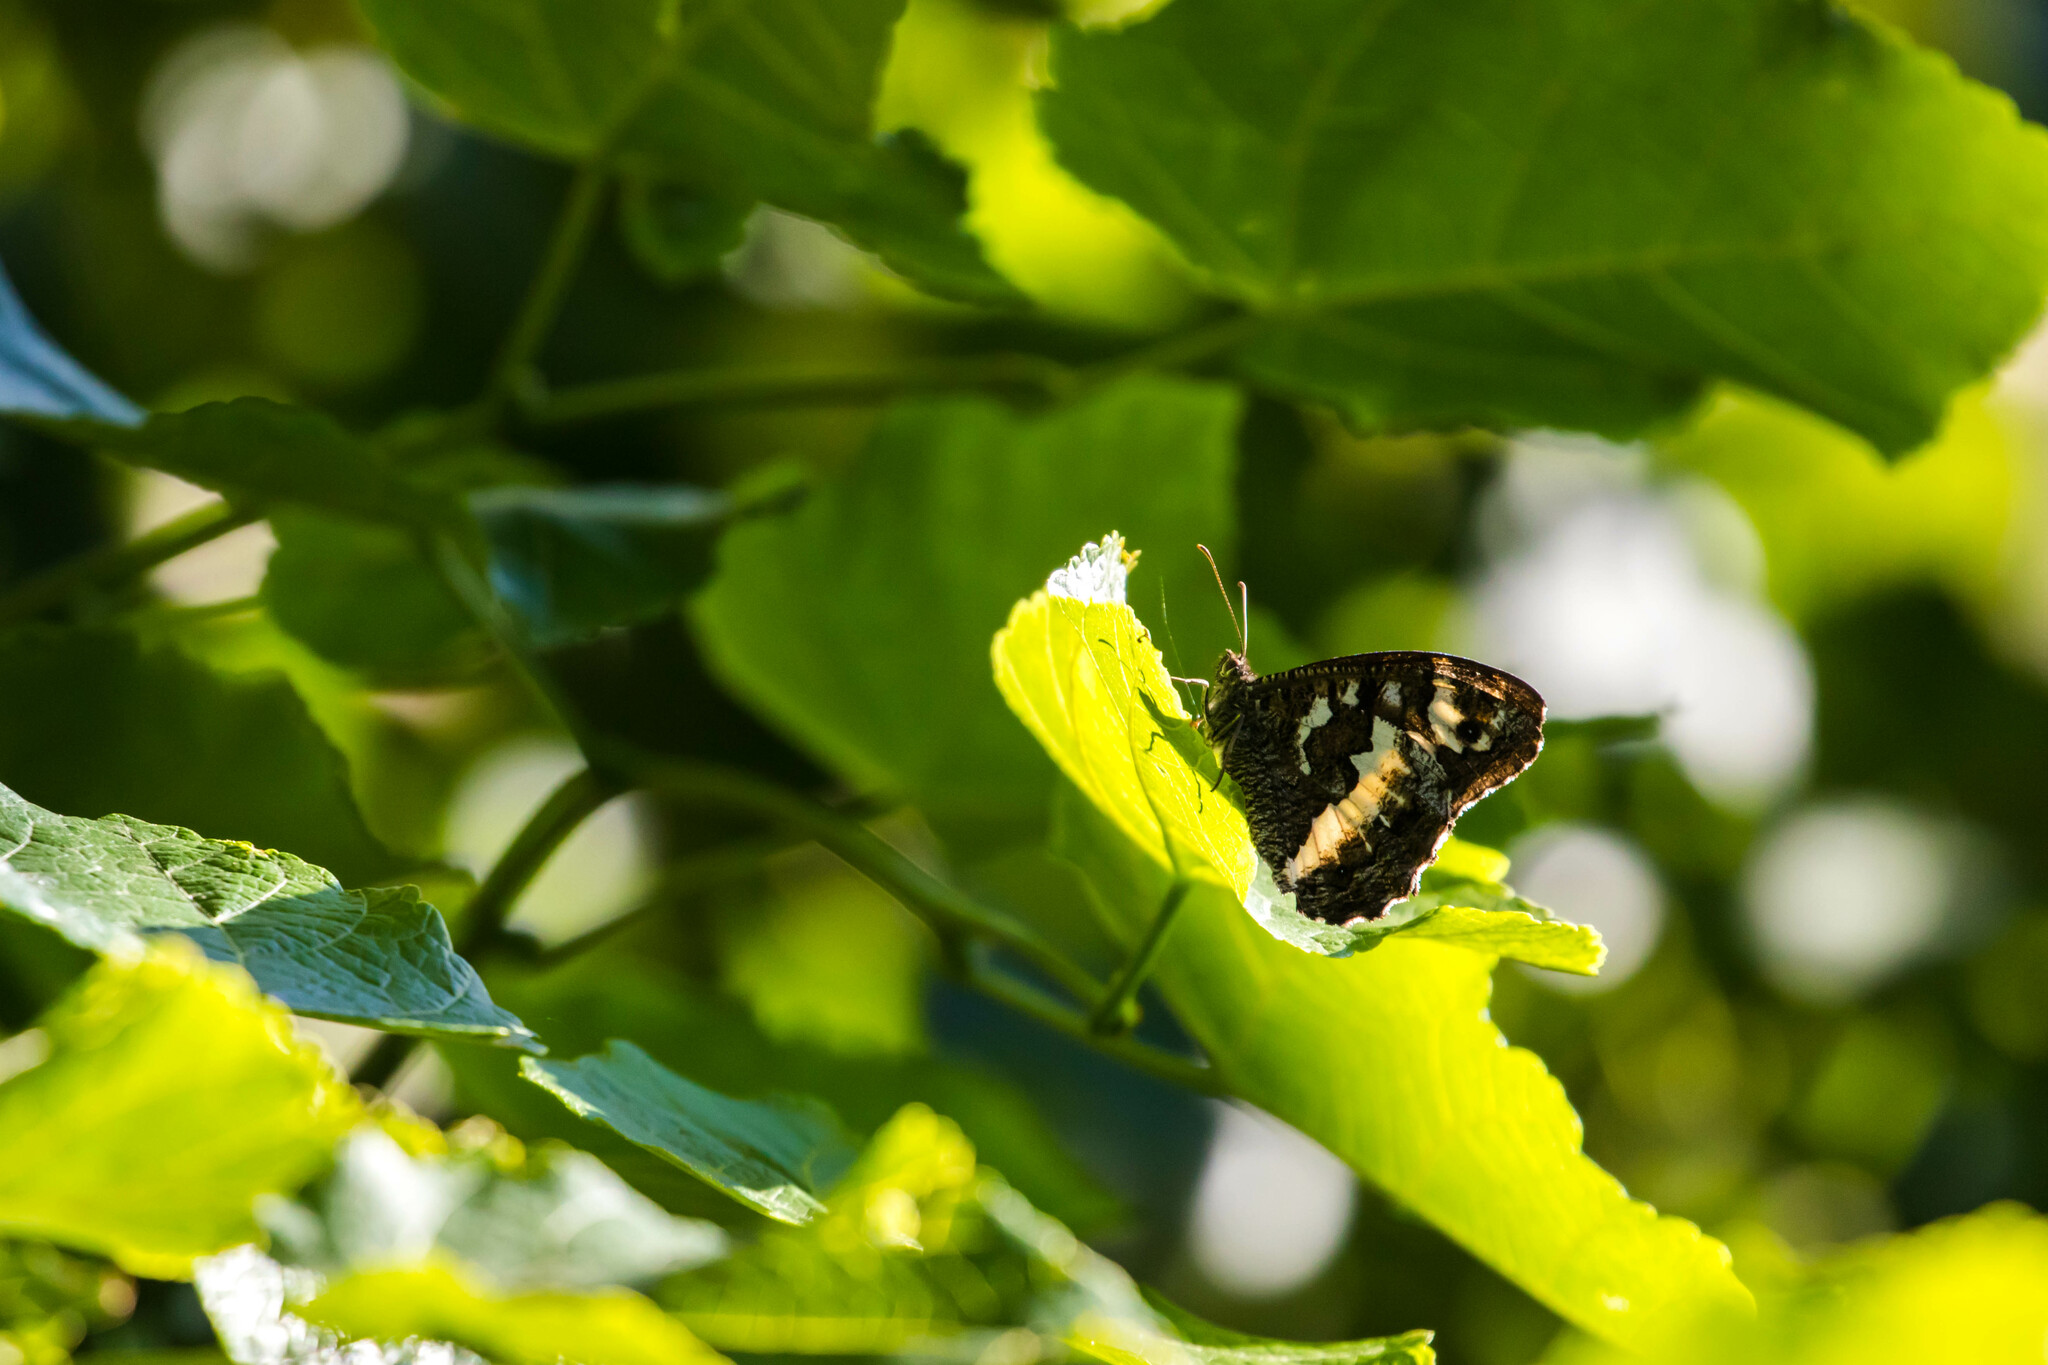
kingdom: Animalia
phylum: Arthropoda
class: Insecta
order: Lepidoptera
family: Lycaenidae
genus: Loweia
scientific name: Loweia tityrus
